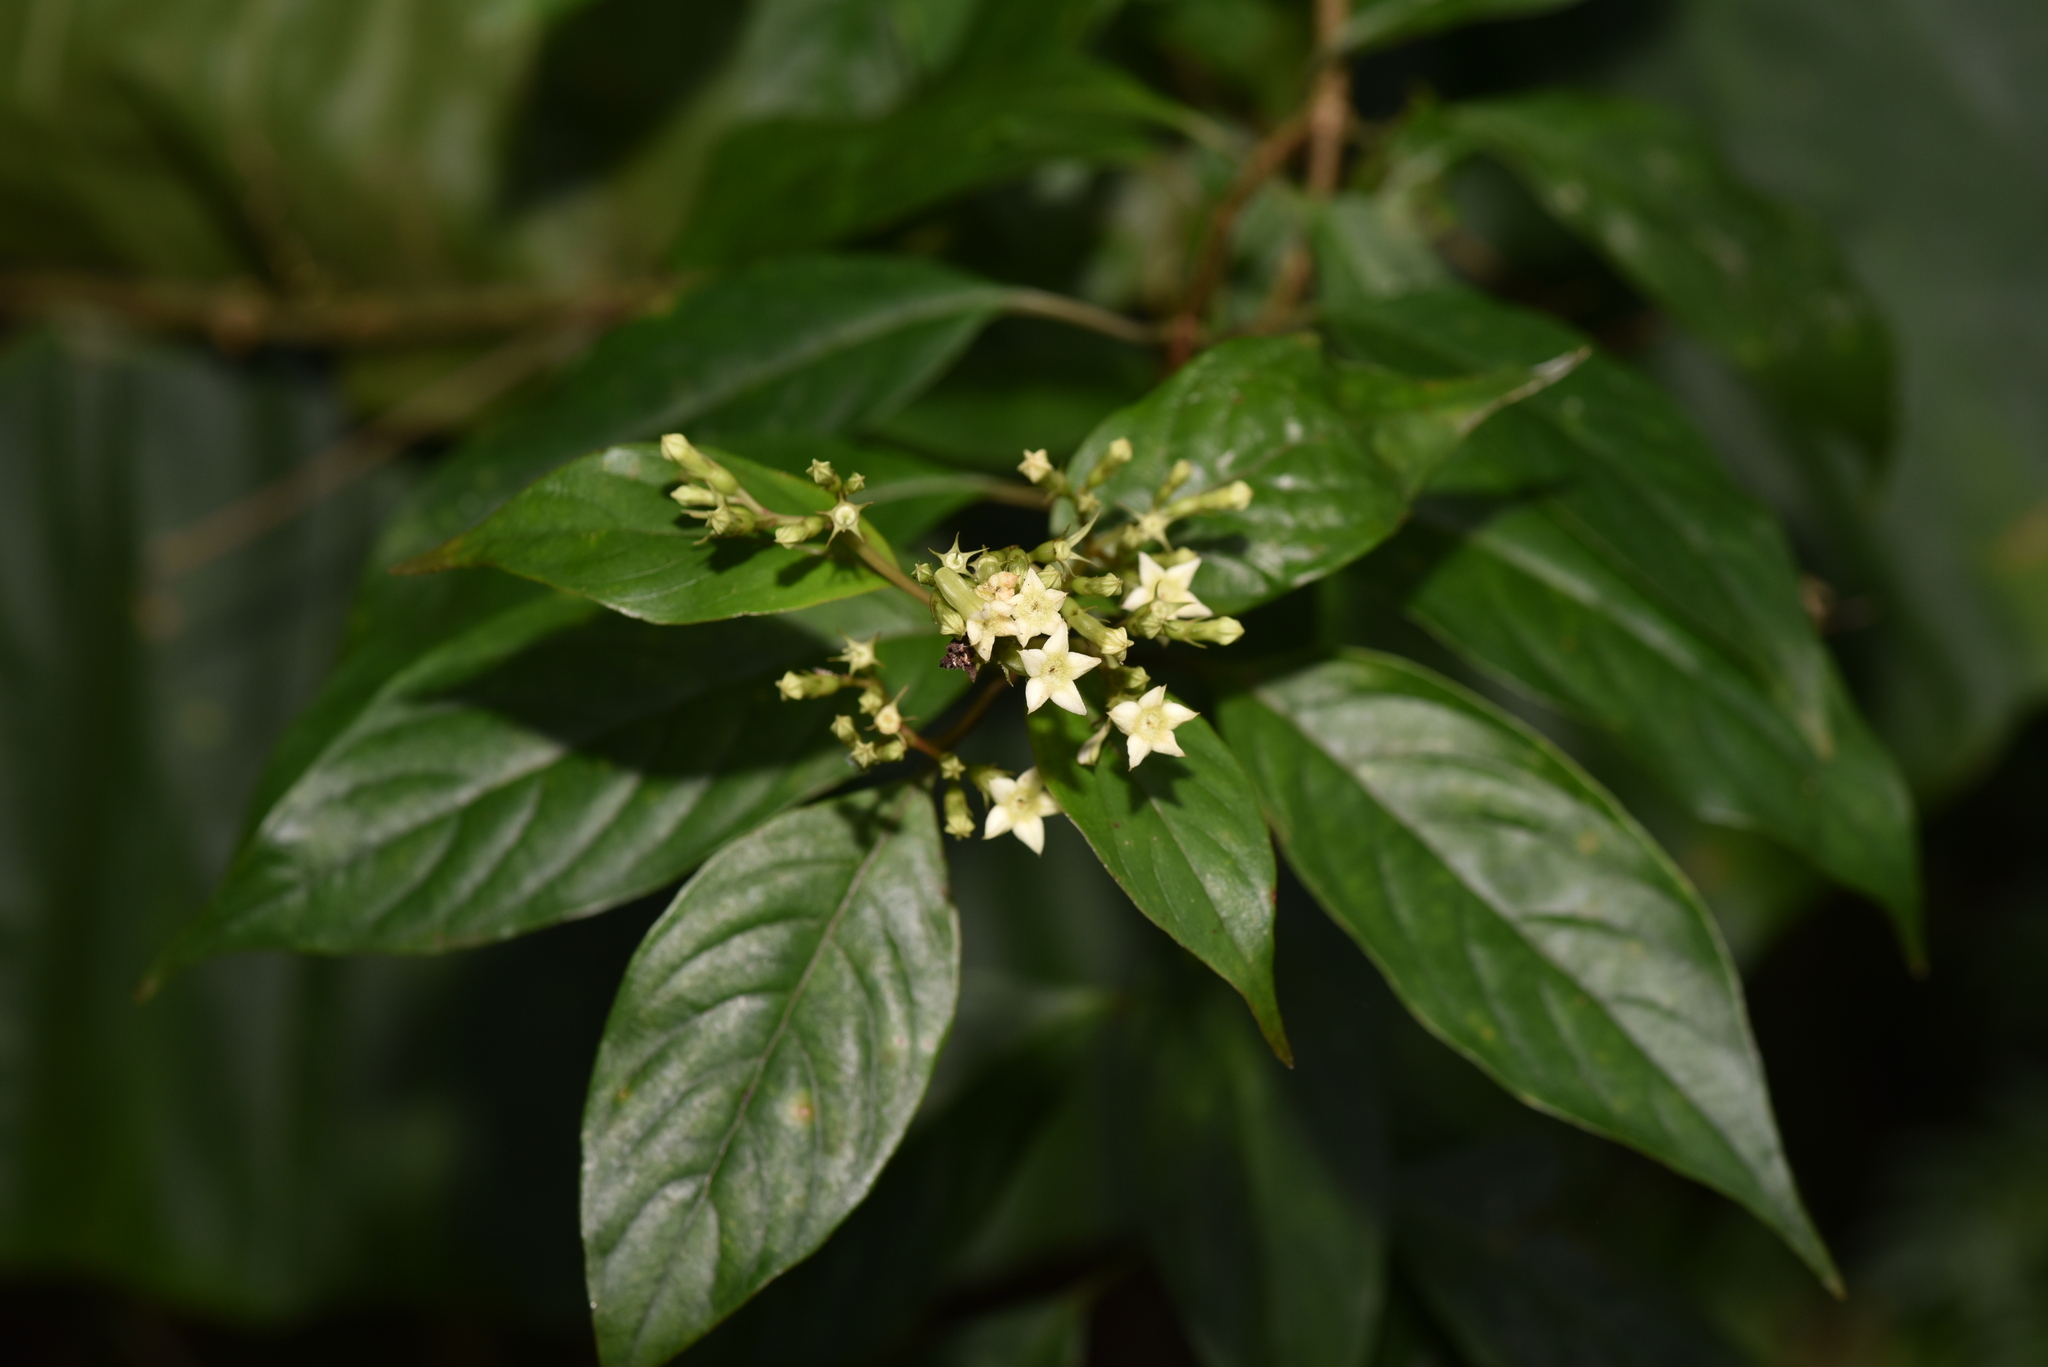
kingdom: Plantae
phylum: Tracheophyta
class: Magnoliopsida
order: Gentianales
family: Rubiaceae
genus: Mussaenda
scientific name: Mussaenda parviflora
